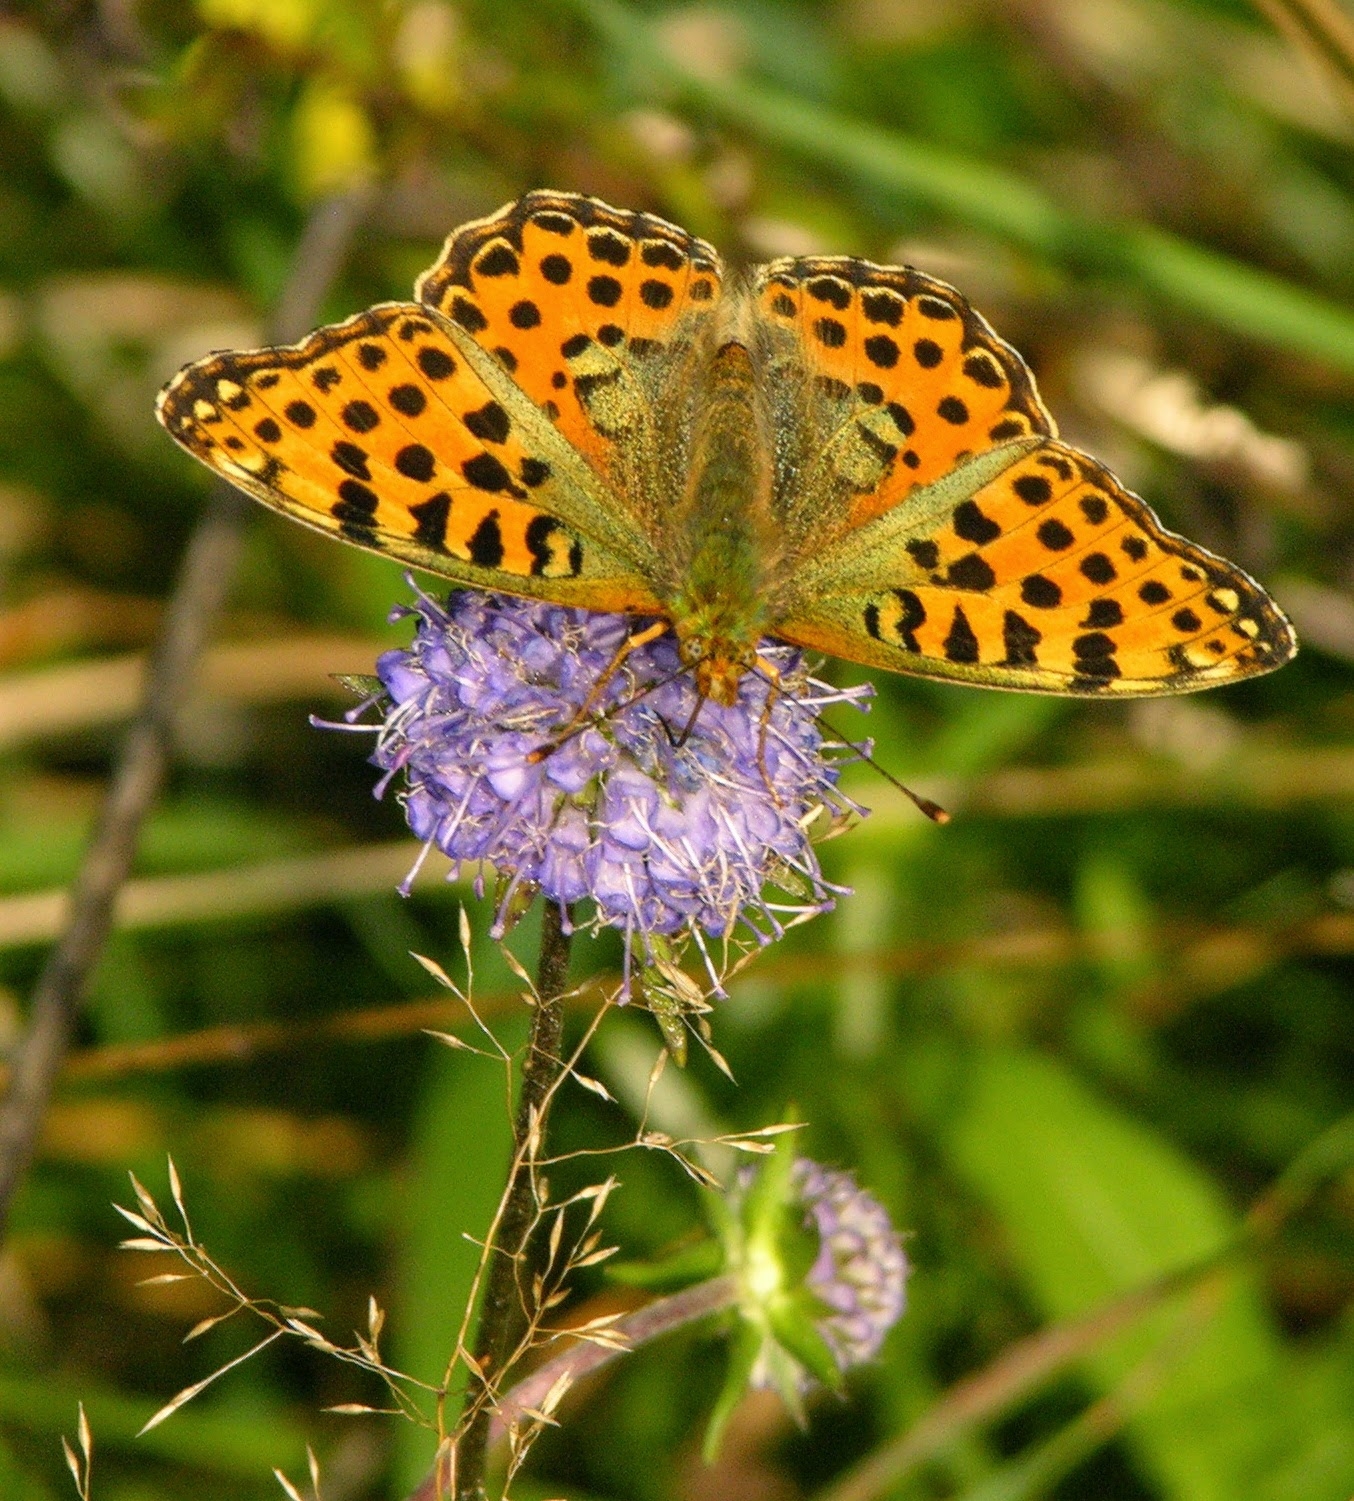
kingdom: Animalia
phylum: Arthropoda
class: Insecta
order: Lepidoptera
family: Nymphalidae
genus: Issoria
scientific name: Issoria lathonia
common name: Queen of spain fritillary
